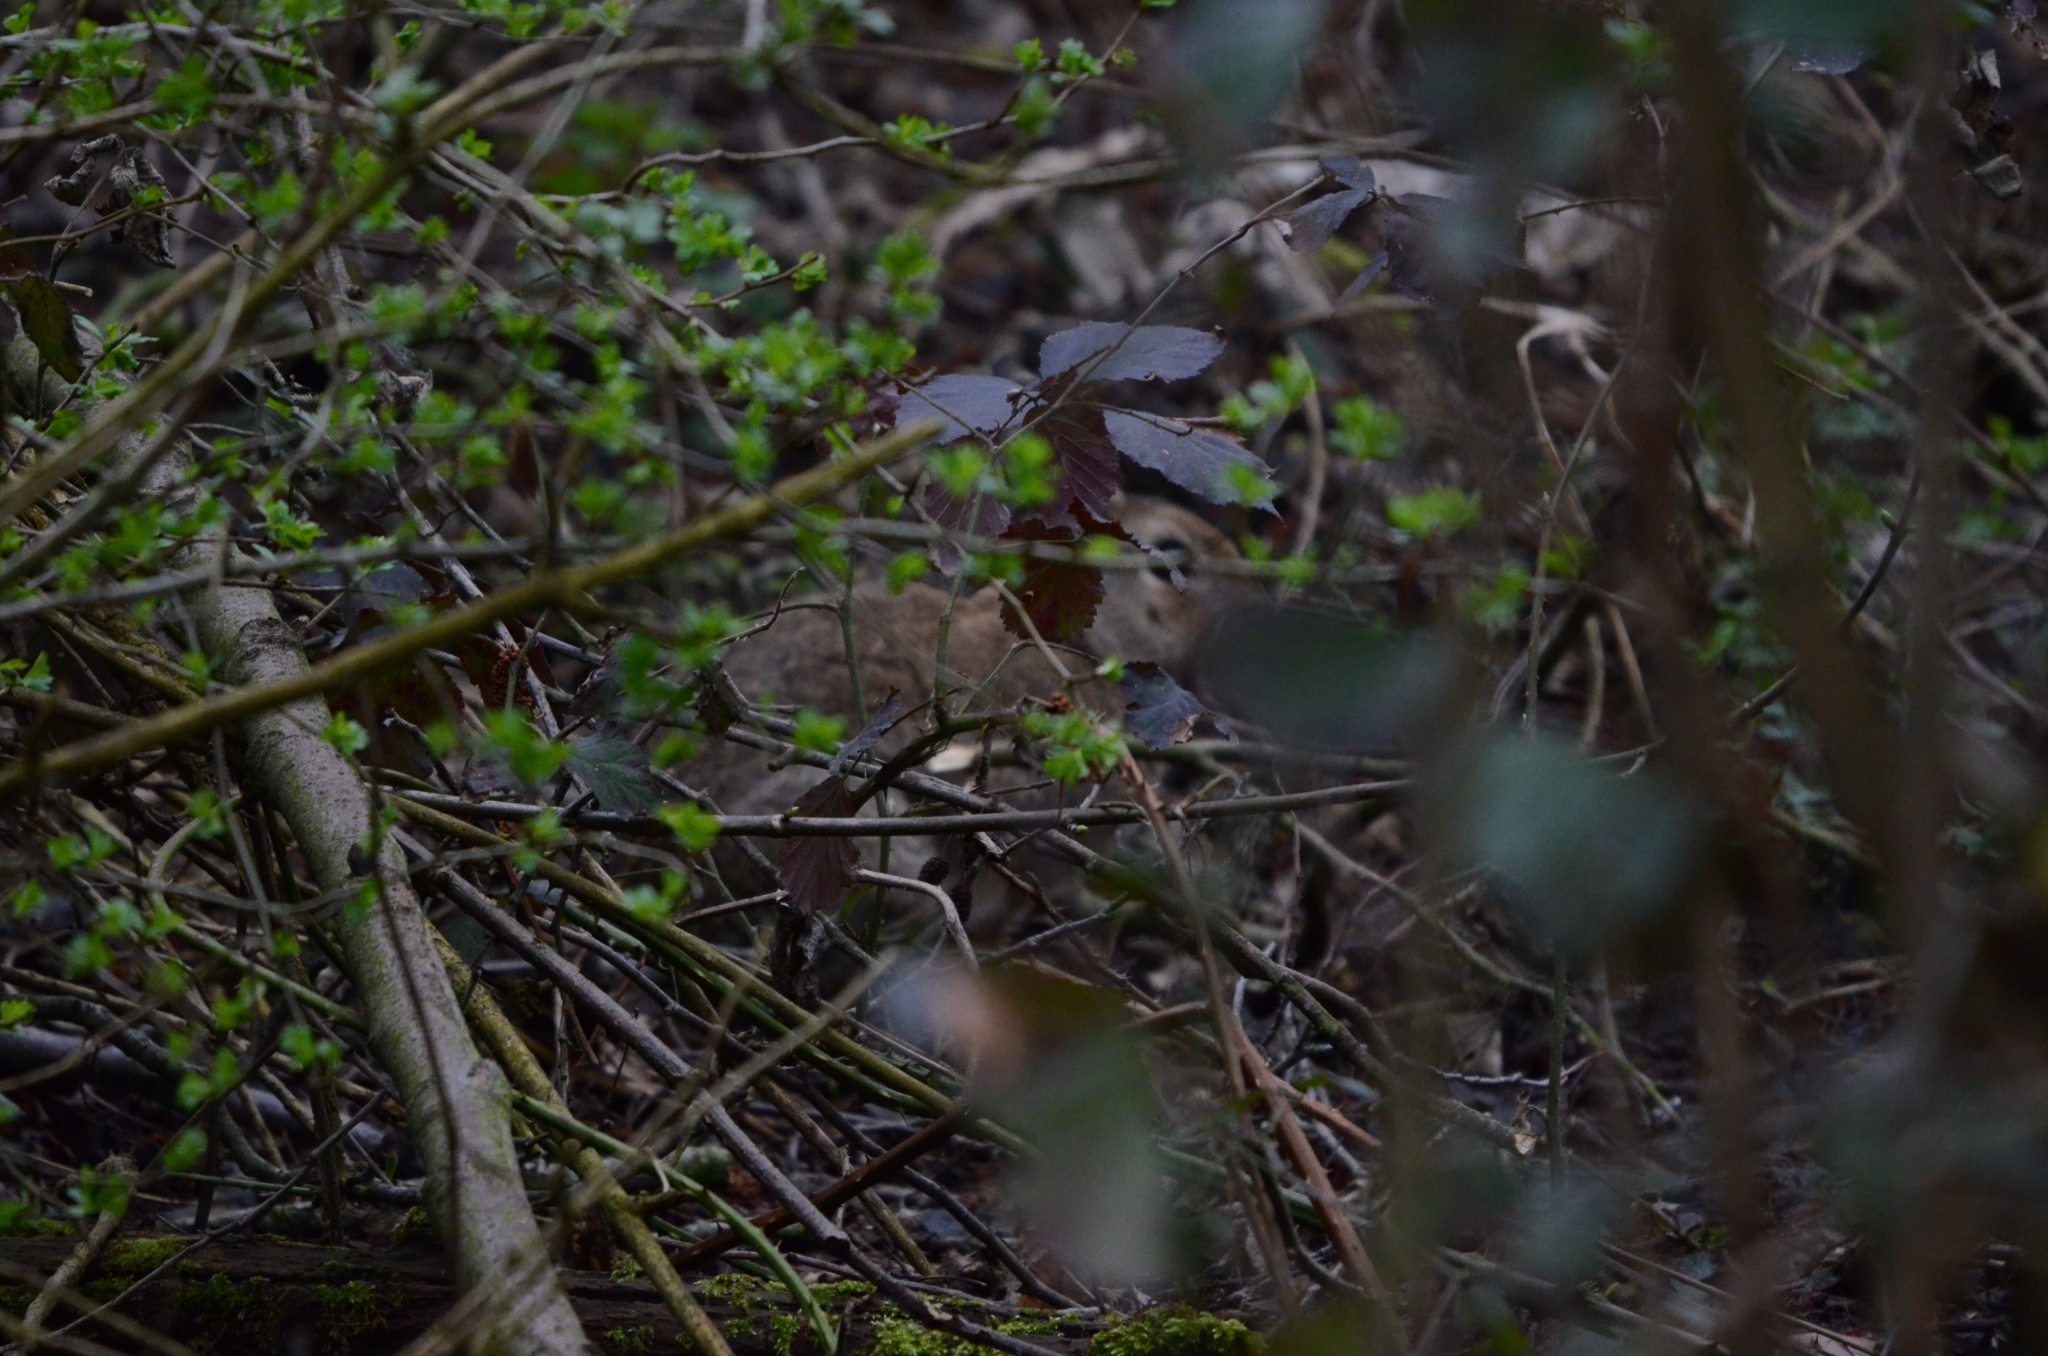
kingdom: Animalia
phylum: Chordata
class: Mammalia
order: Lagomorpha
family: Leporidae
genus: Oryctolagus
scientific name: Oryctolagus cuniculus
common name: European rabbit
